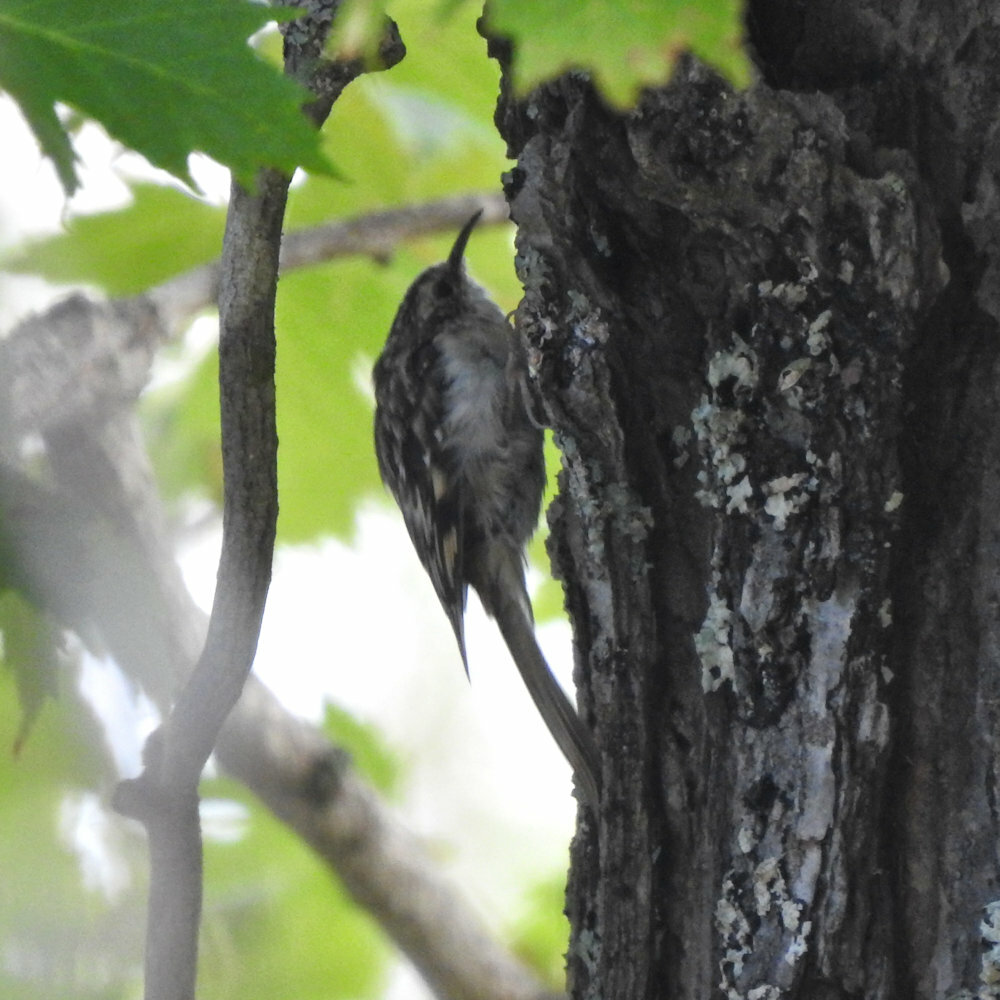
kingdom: Animalia
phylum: Chordata
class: Aves
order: Passeriformes
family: Certhiidae
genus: Certhia
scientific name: Certhia americana
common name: Brown creeper
